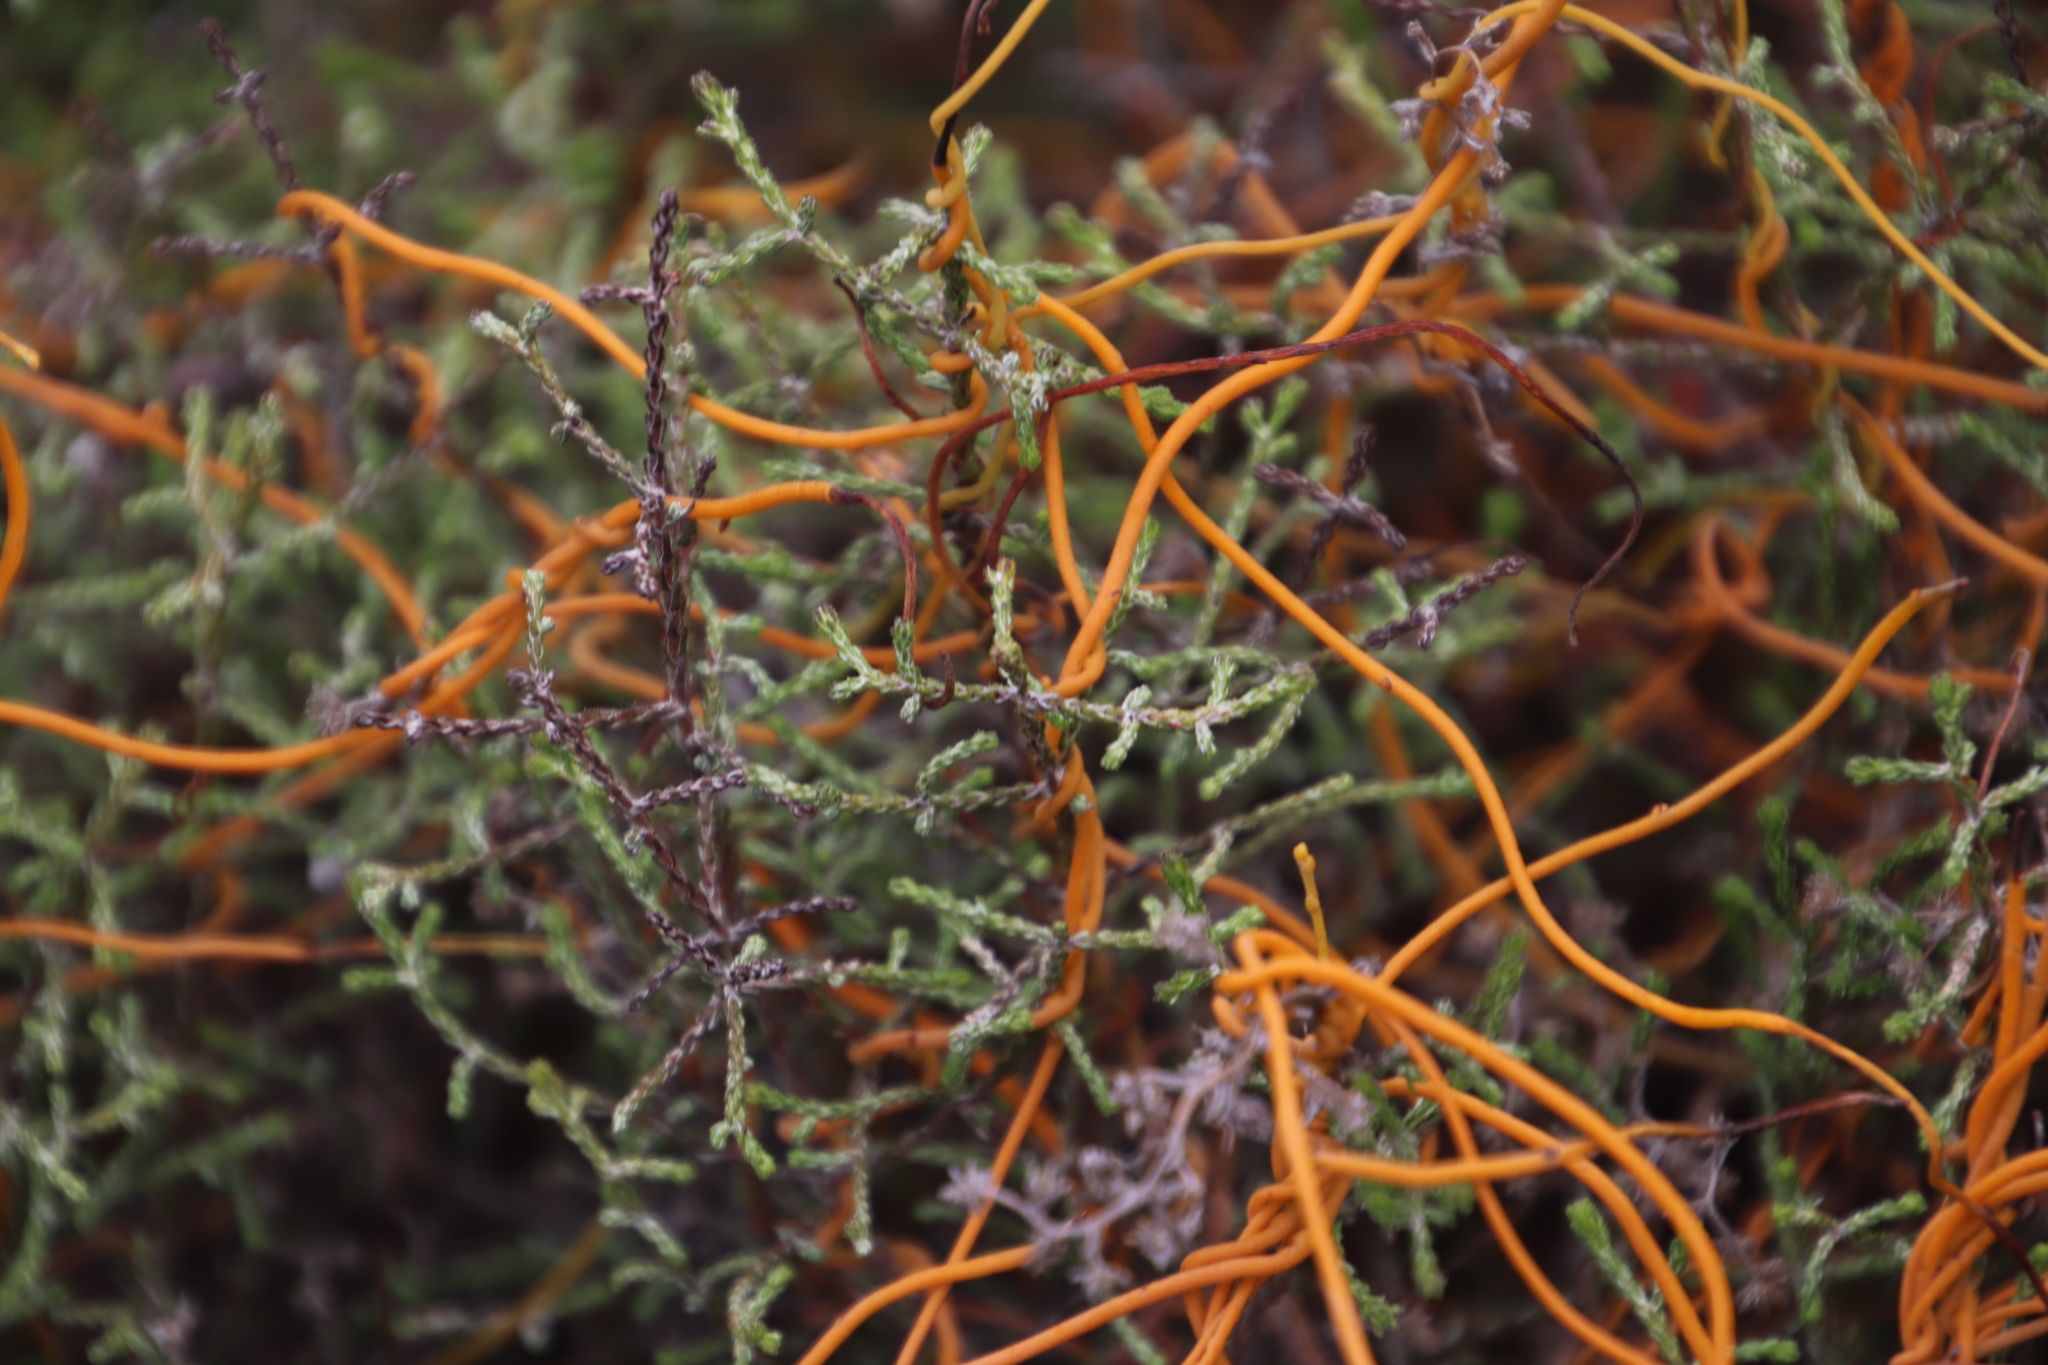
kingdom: Plantae
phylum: Tracheophyta
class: Magnoliopsida
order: Asterales
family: Asteraceae
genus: Myrovernix
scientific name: Myrovernix scaber
